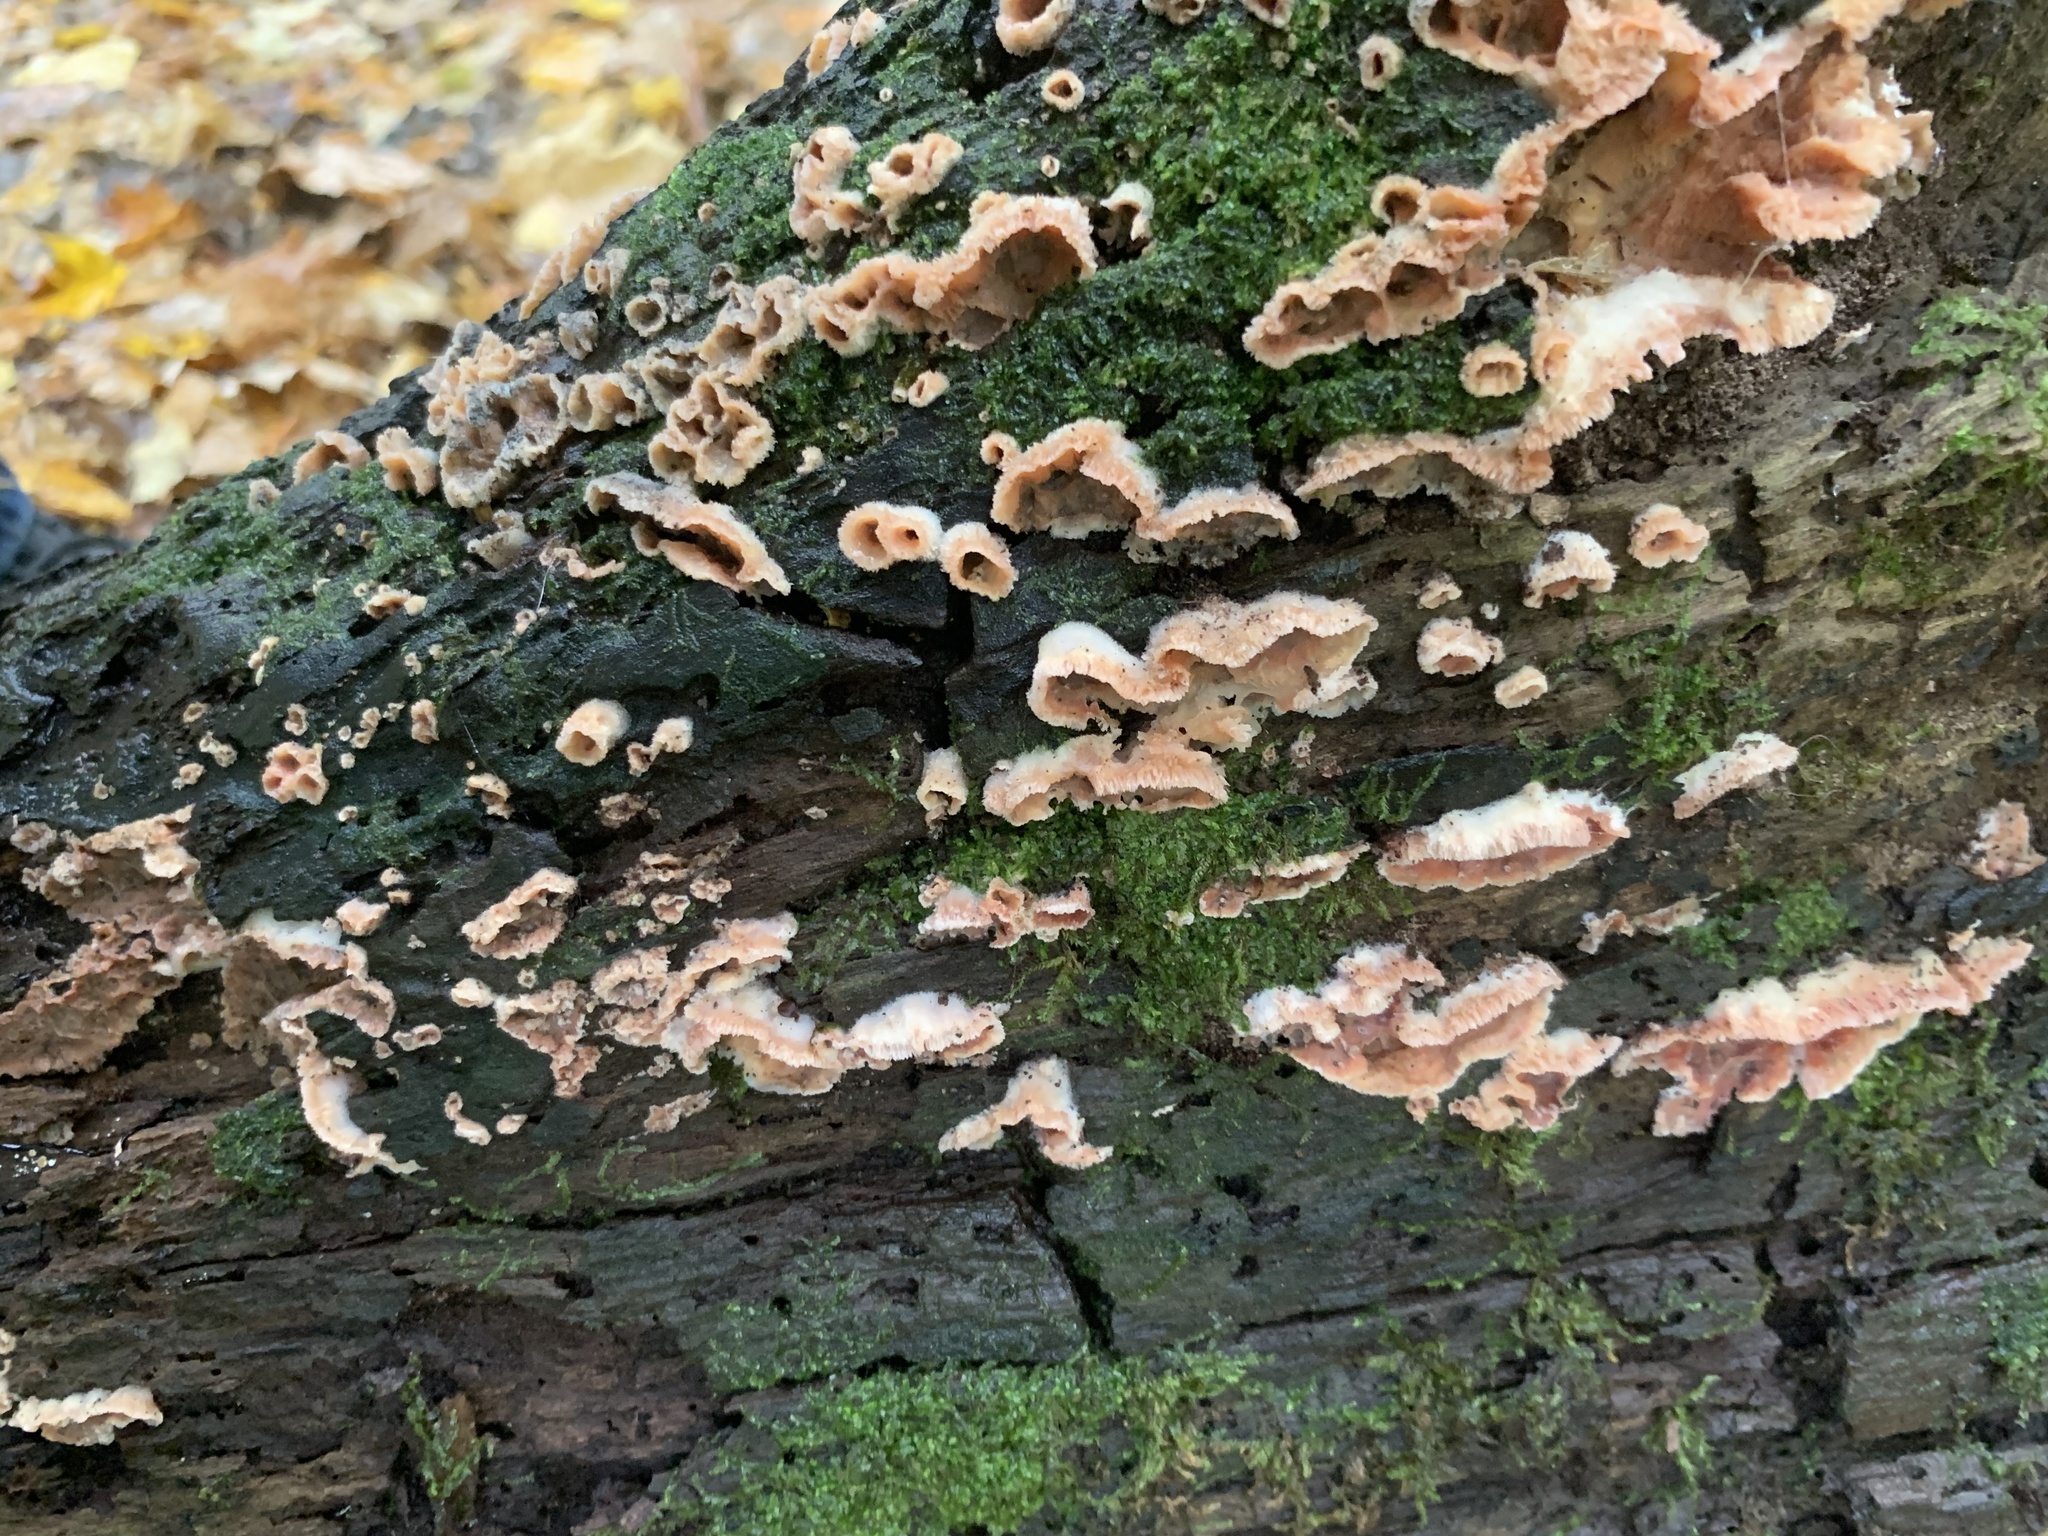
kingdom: Fungi
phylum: Basidiomycota
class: Agaricomycetes
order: Polyporales
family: Meruliaceae
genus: Phlebia
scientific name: Phlebia tremellosa
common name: Jelly rot
